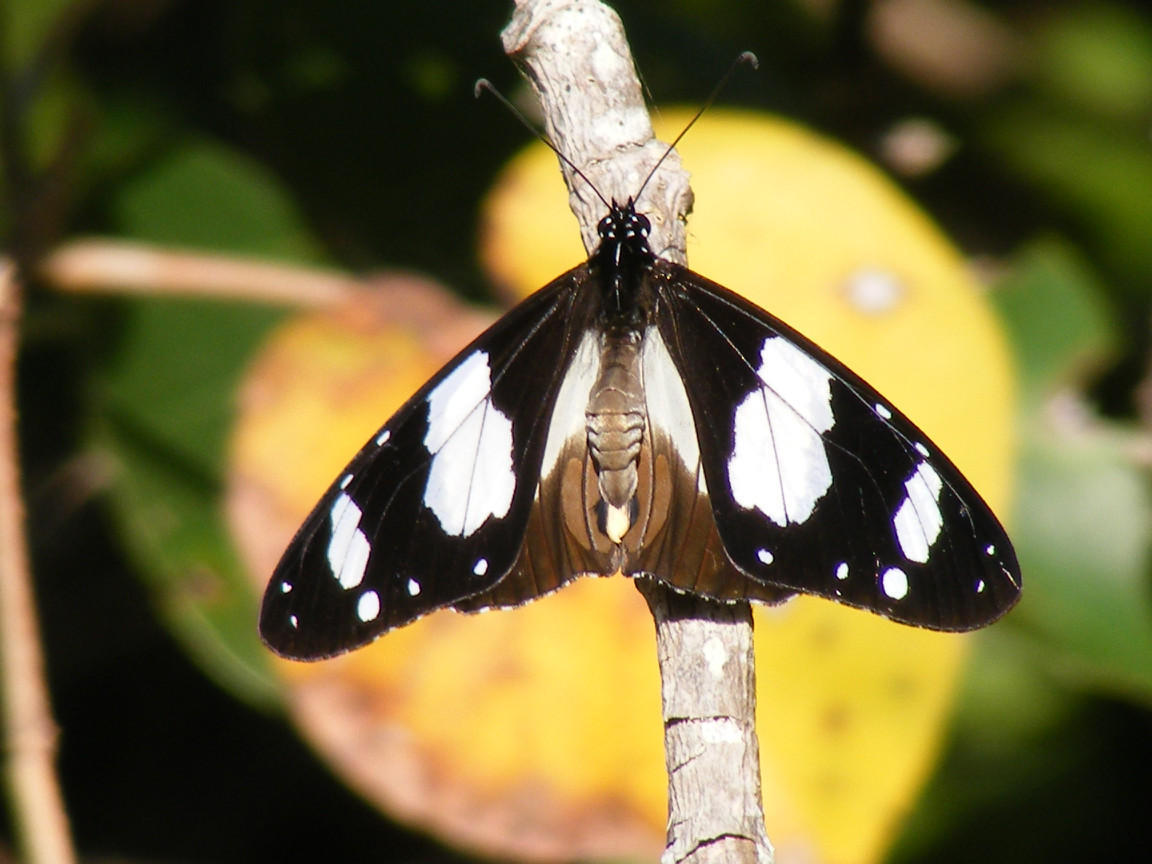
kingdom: Animalia
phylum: Arthropoda
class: Insecta
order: Lepidoptera
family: Nymphalidae
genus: Amauris
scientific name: Amauris ochlea
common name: Novice
